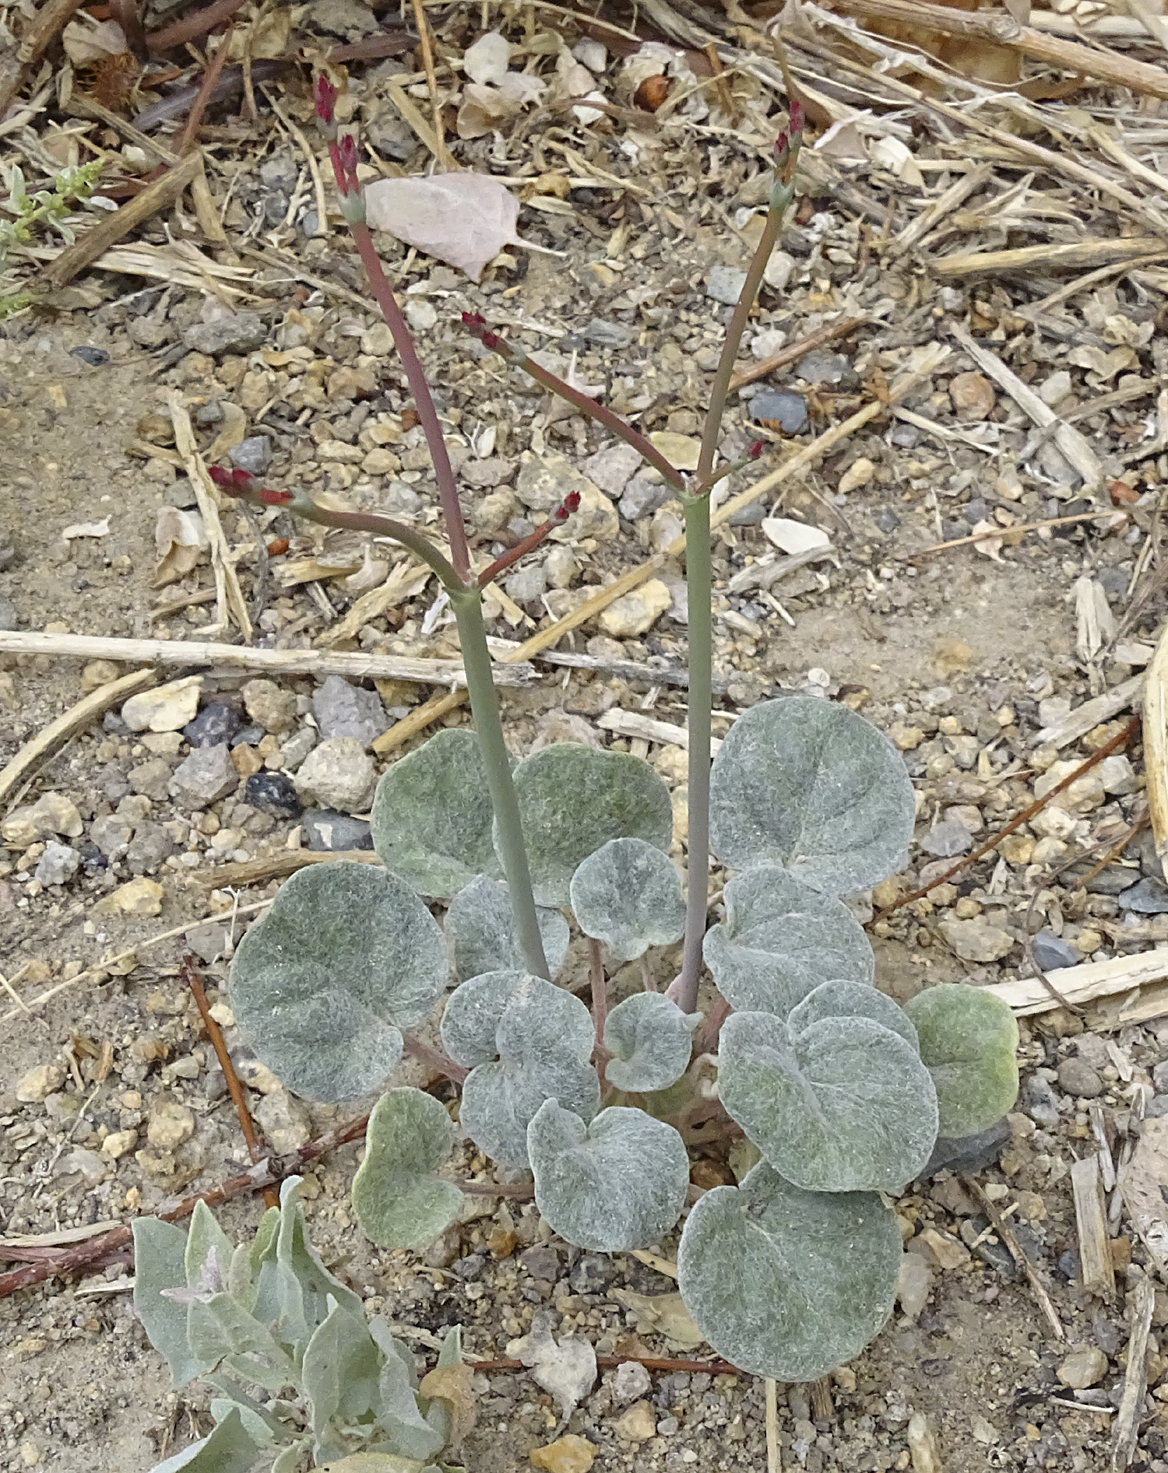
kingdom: Plantae
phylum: Tracheophyta
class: Magnoliopsida
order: Caryophyllales
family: Polygonaceae
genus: Eriogonum
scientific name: Eriogonum deflexum
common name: Skeleton-weed
